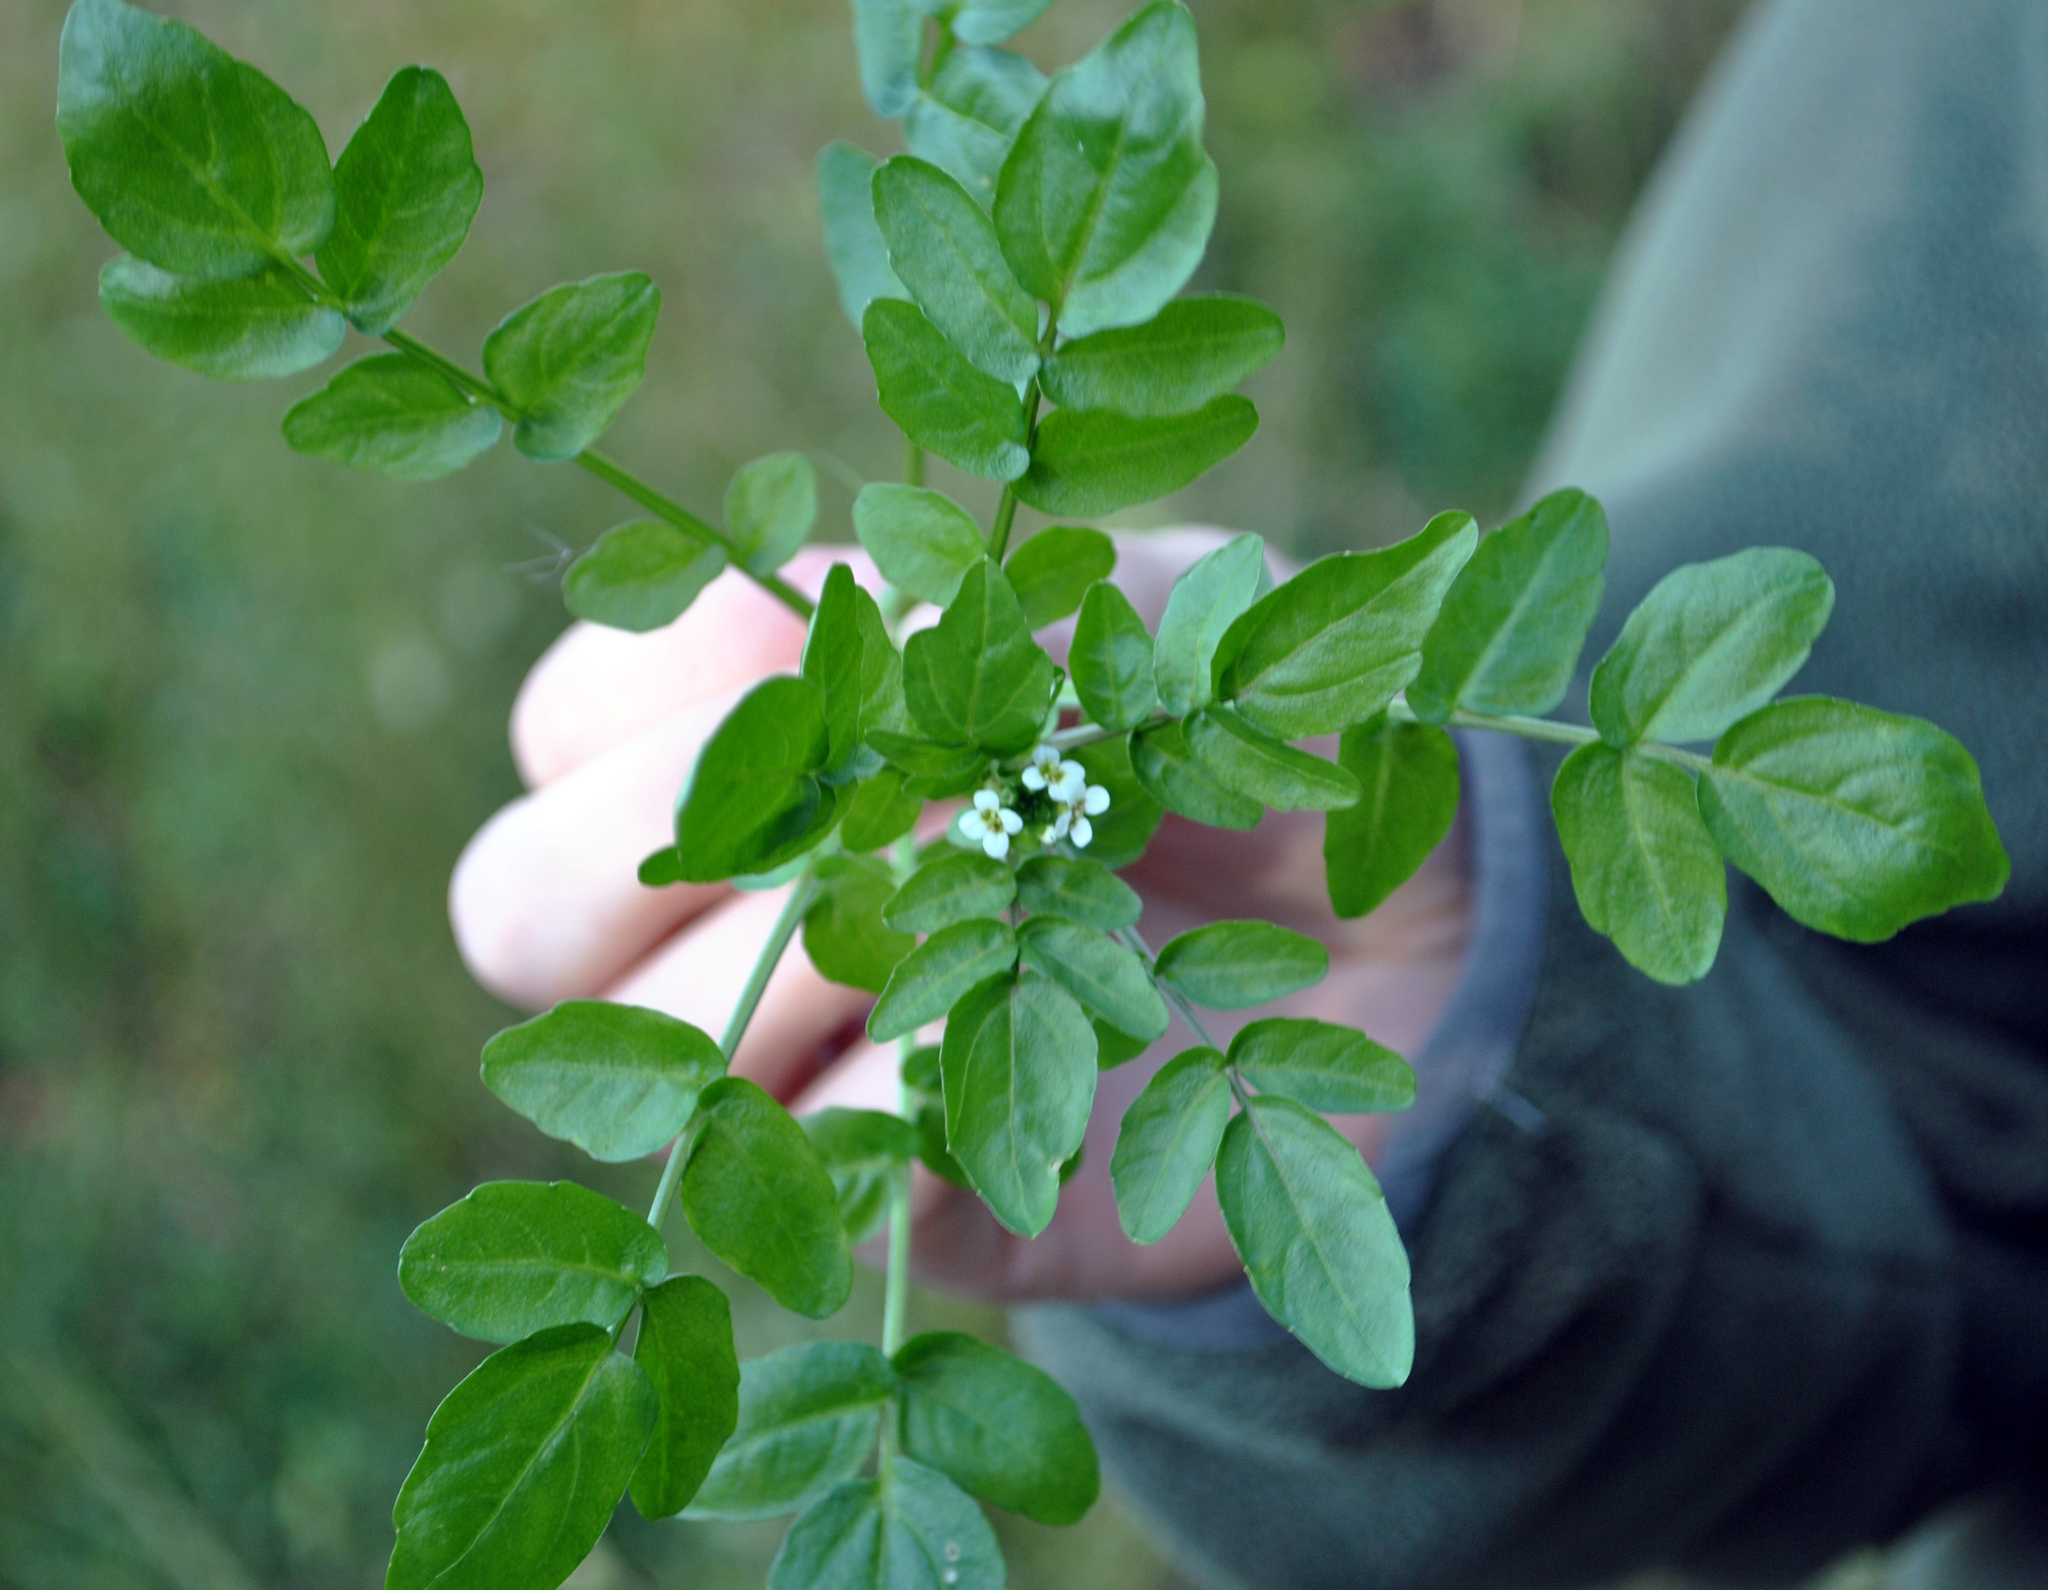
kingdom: Plantae
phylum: Tracheophyta
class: Magnoliopsida
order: Brassicales
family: Brassicaceae
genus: Nasturtium
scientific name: Nasturtium officinale
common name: Watercress
